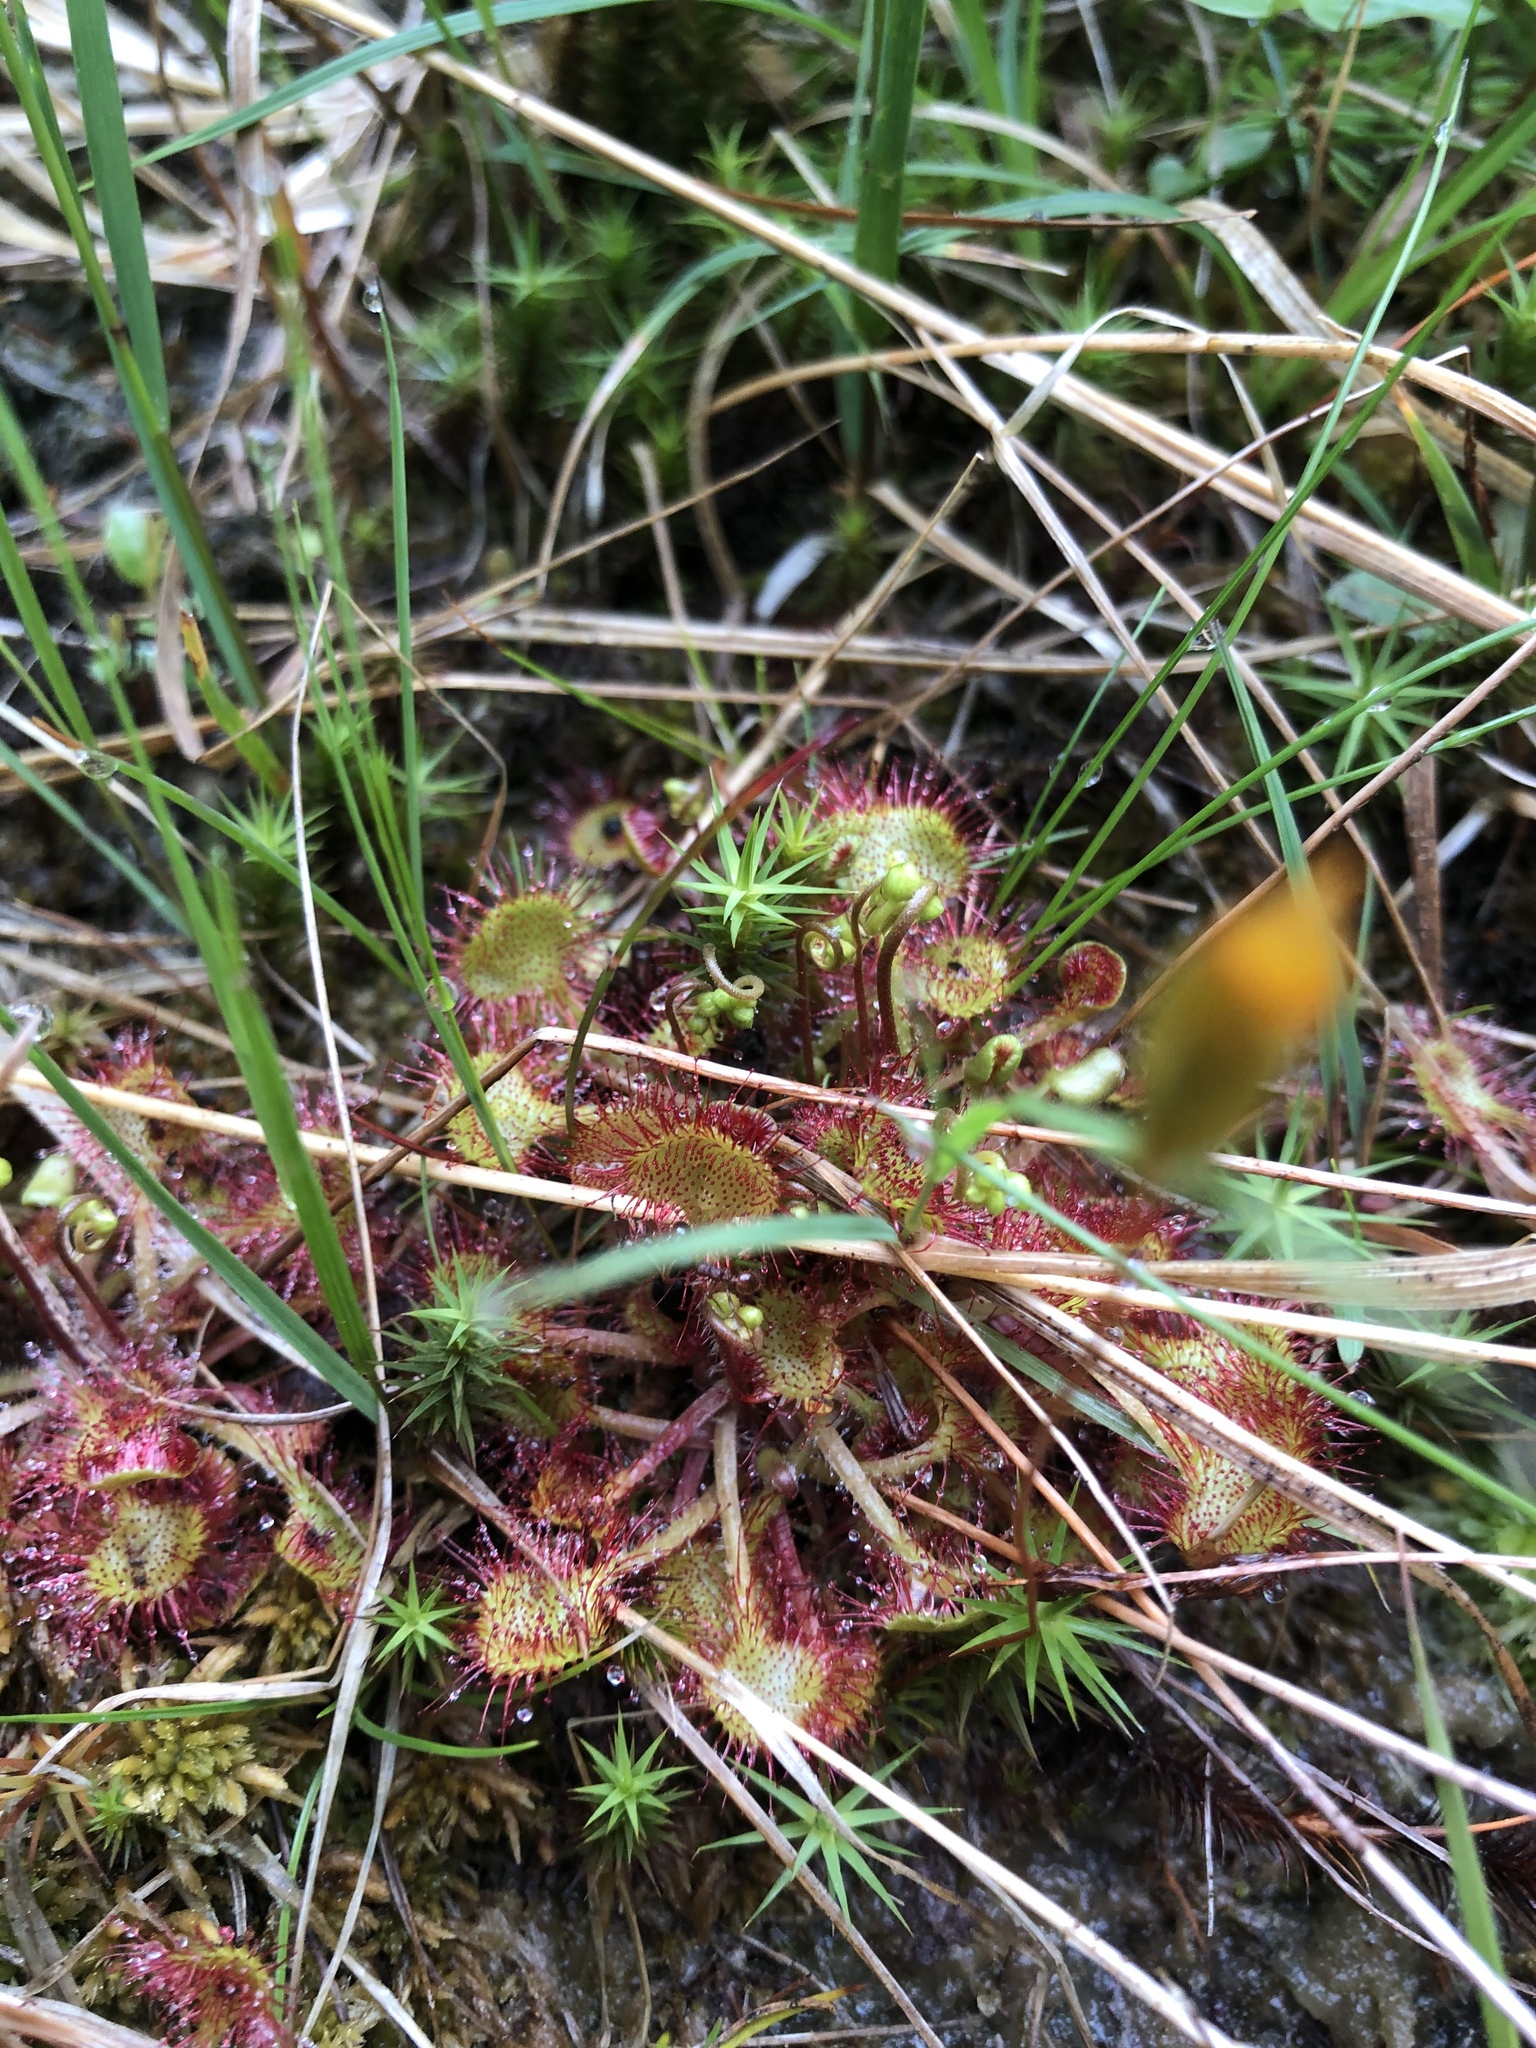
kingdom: Plantae
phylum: Tracheophyta
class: Magnoliopsida
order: Caryophyllales
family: Droseraceae
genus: Drosera
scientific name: Drosera rotundifolia
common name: Round-leaved sundew
